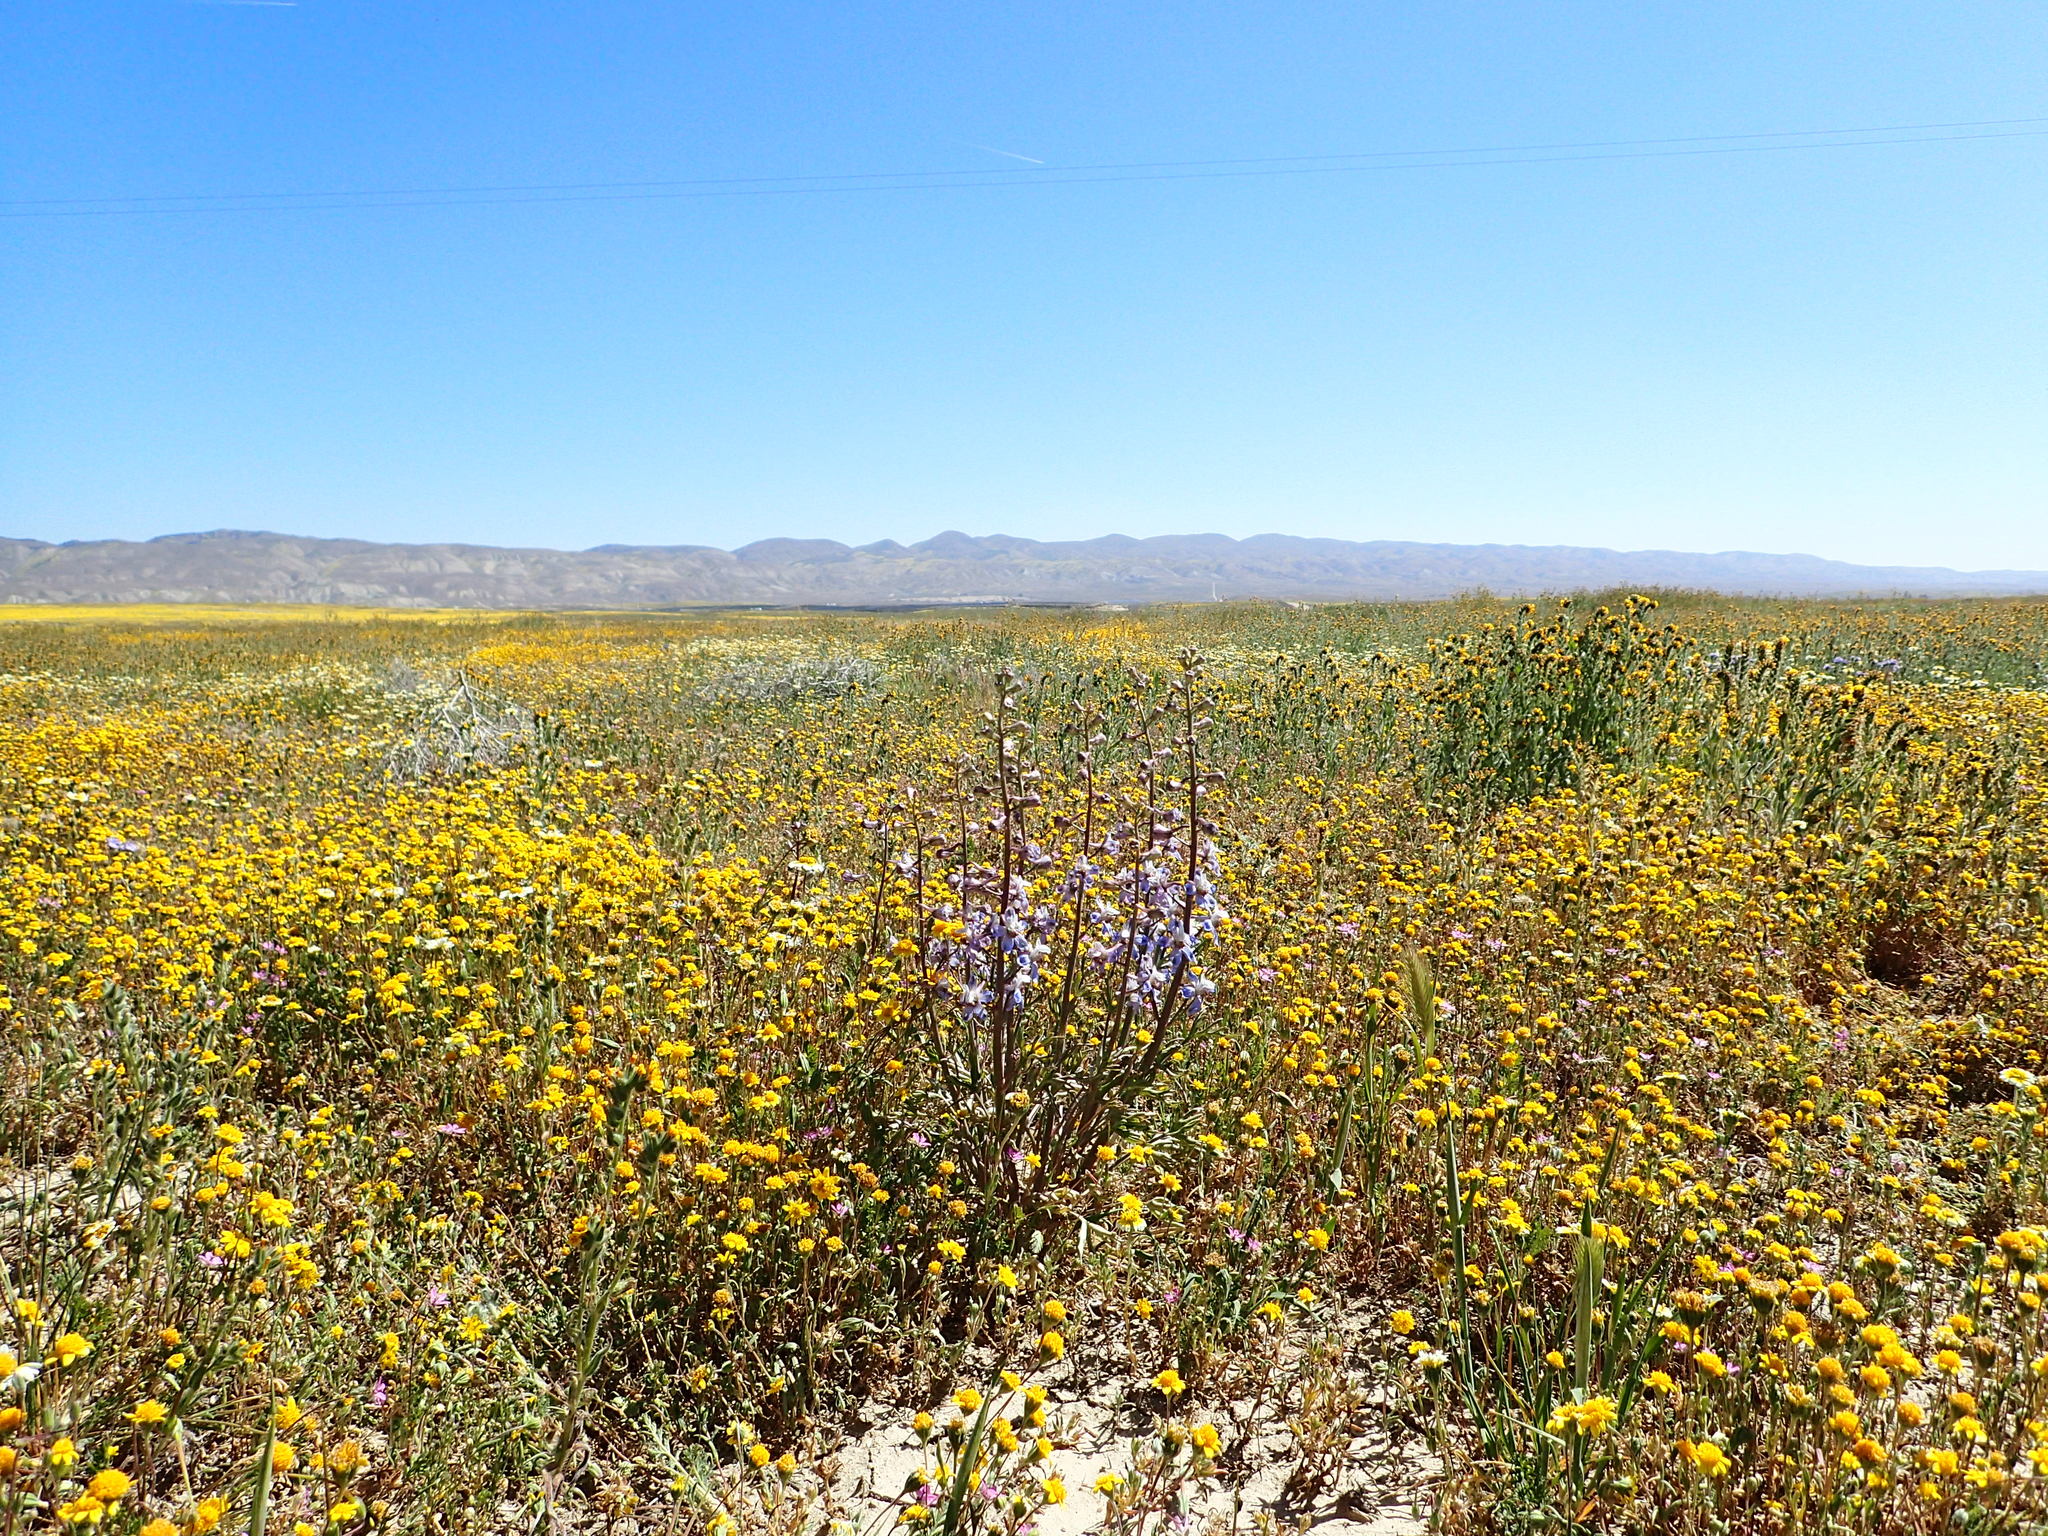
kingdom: Plantae
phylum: Tracheophyta
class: Magnoliopsida
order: Ranunculales
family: Ranunculaceae
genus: Delphinium
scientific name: Delphinium recurvatum
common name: Recurved larkspur
